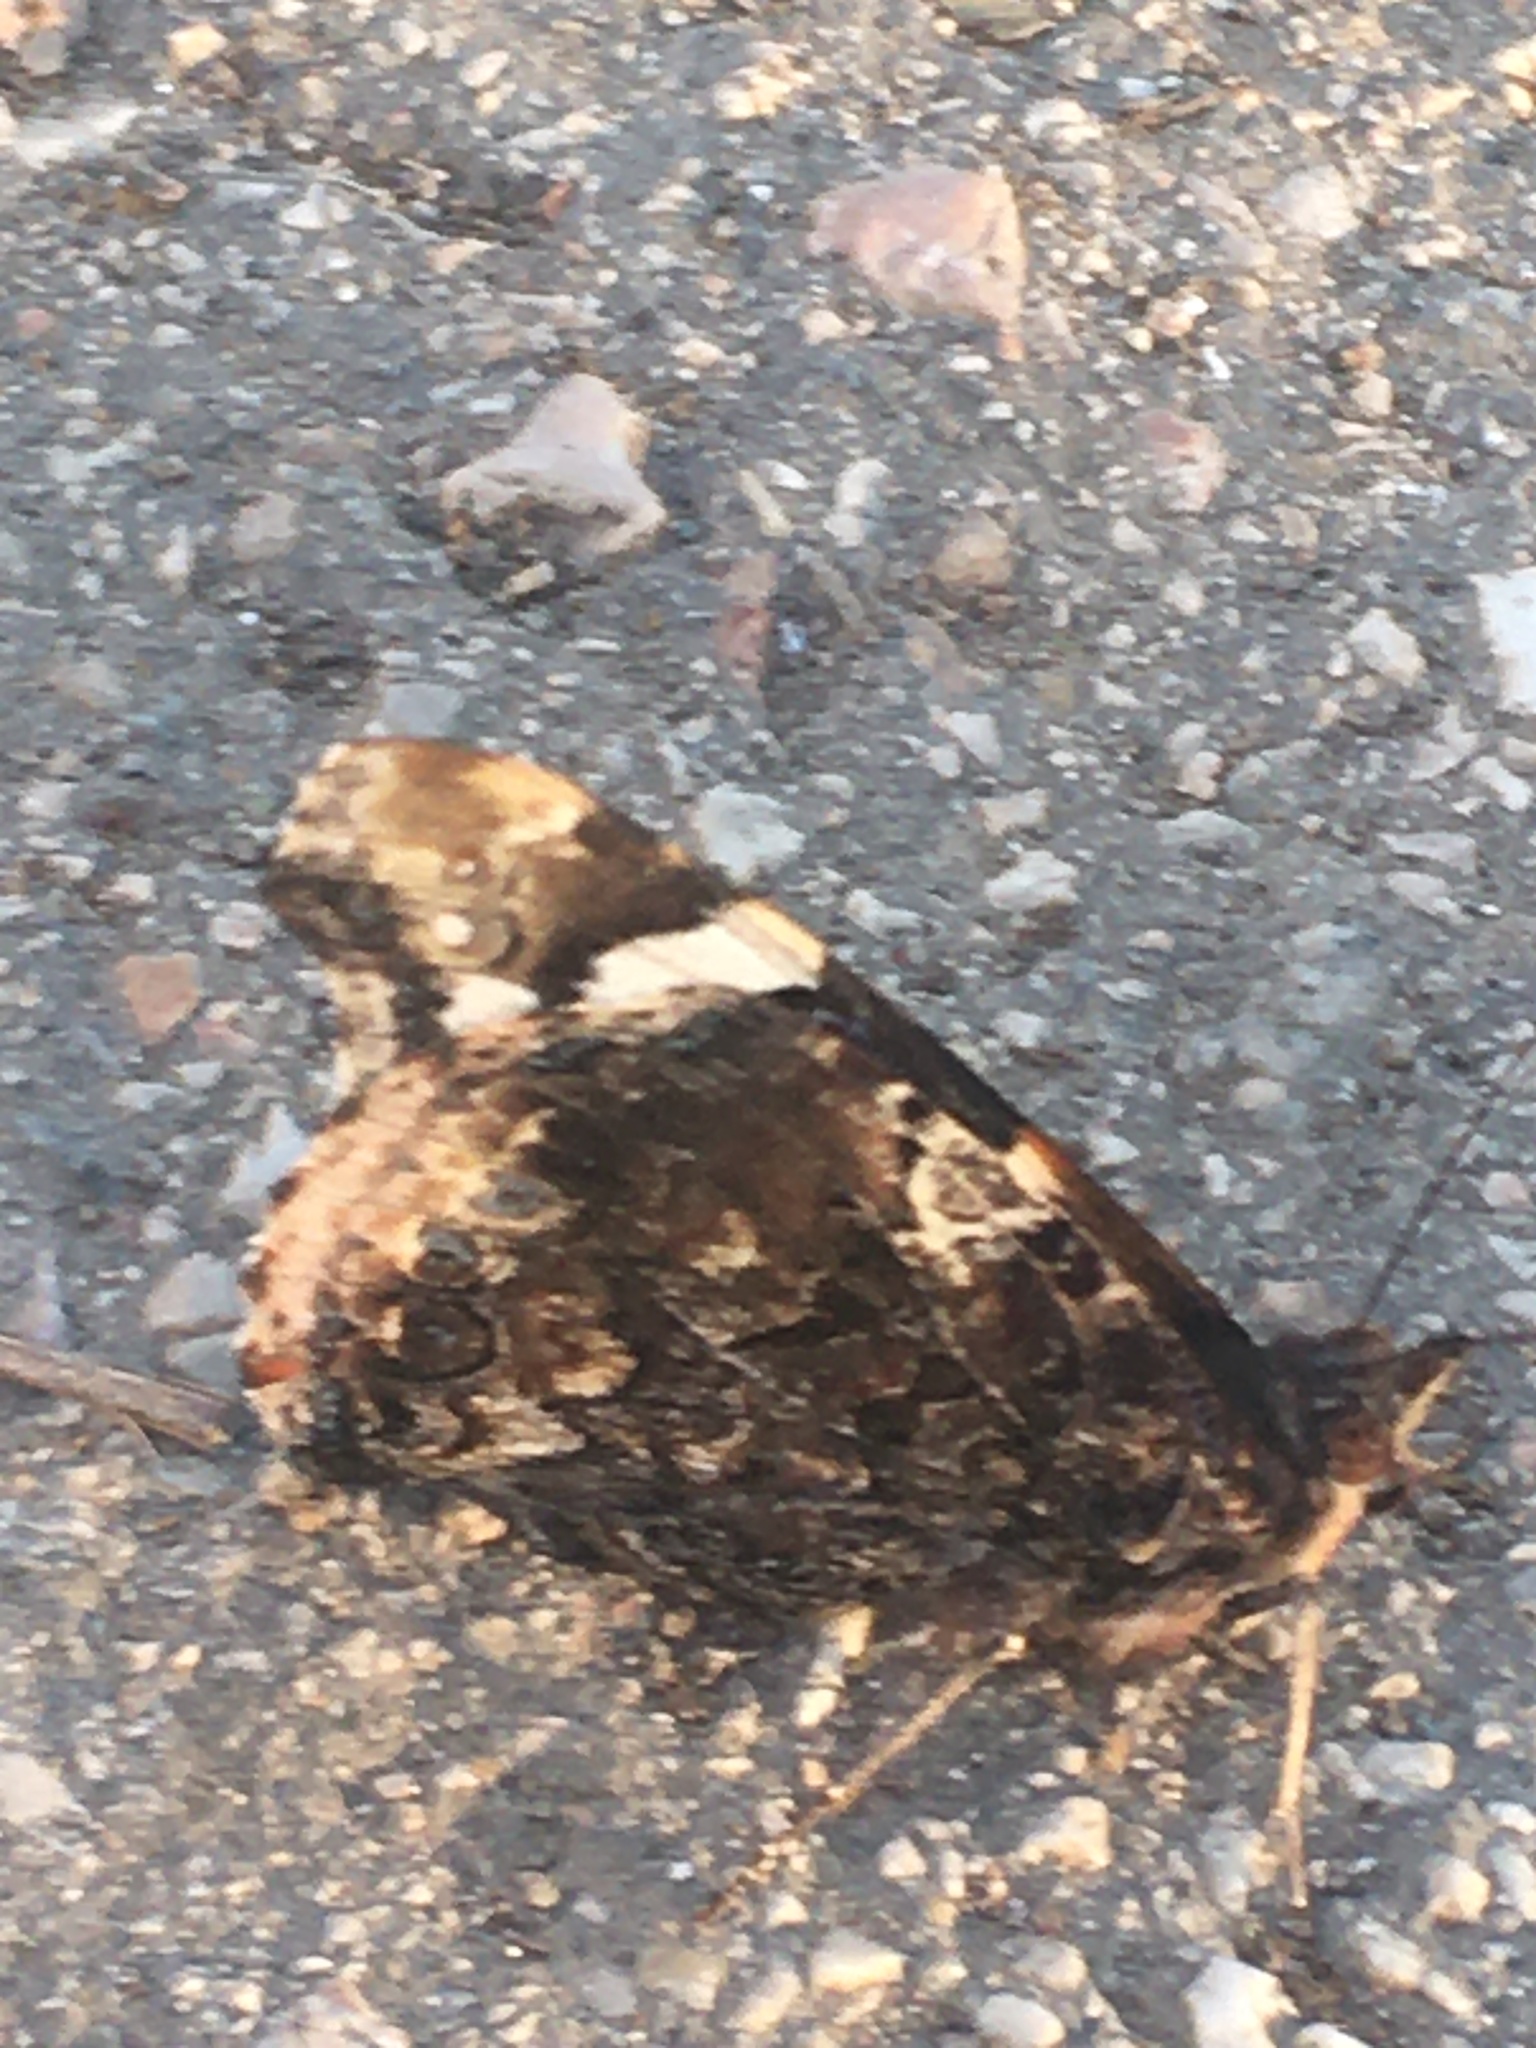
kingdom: Animalia
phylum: Arthropoda
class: Insecta
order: Lepidoptera
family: Nymphalidae
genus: Vanessa
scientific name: Vanessa atalanta
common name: Red admiral
